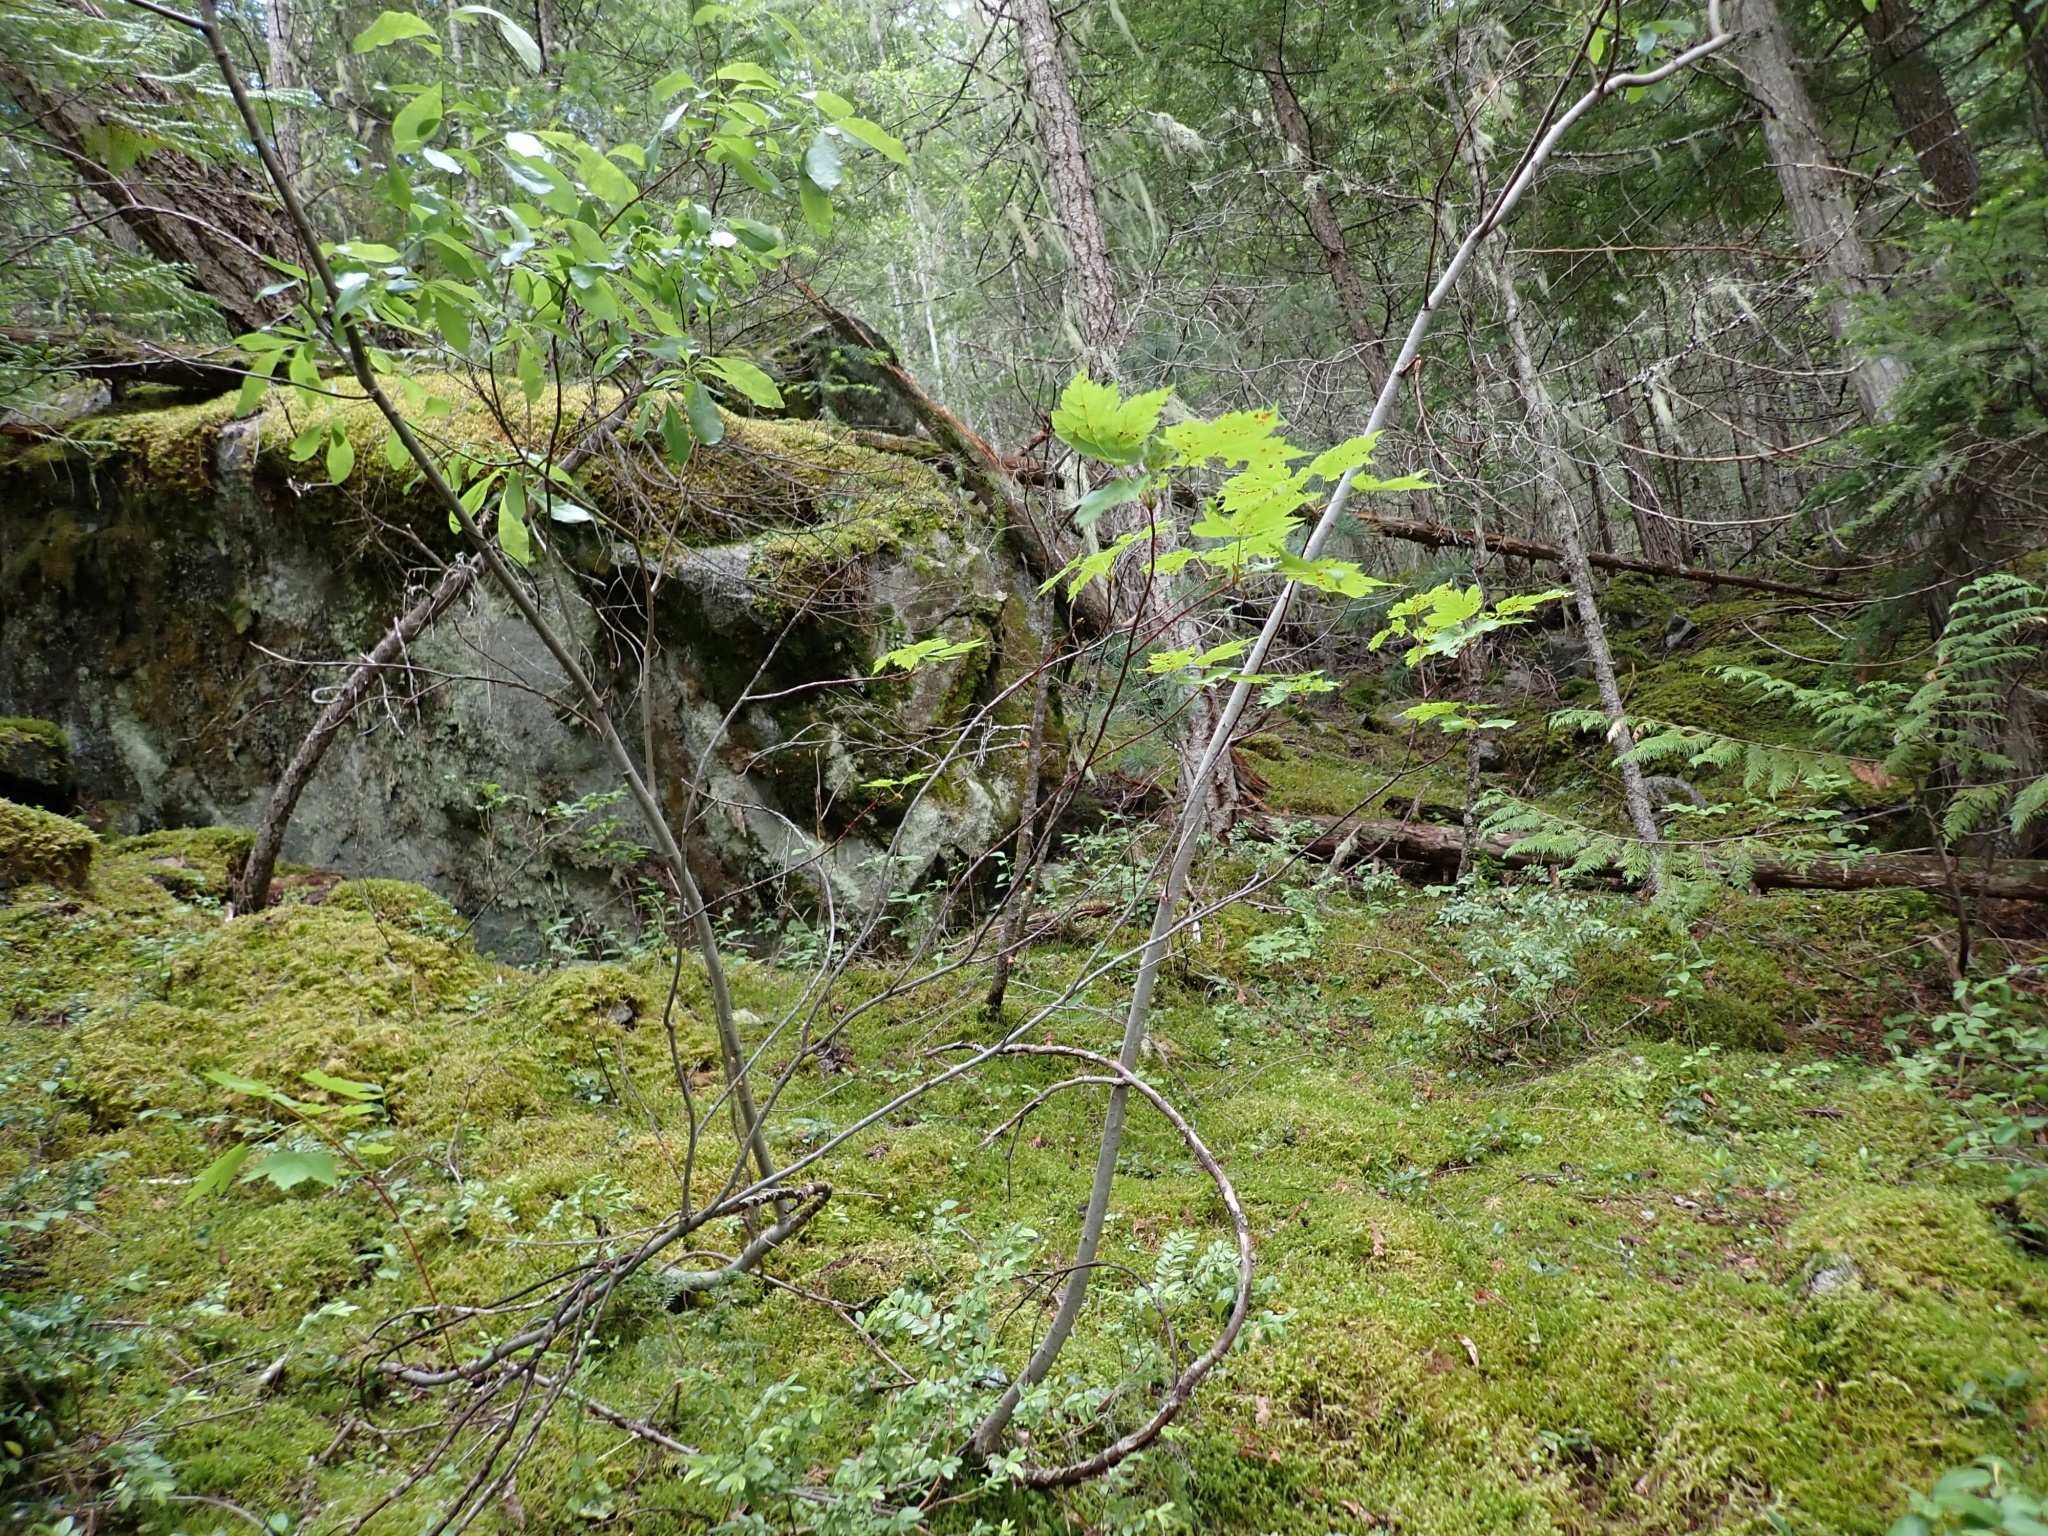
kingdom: Plantae
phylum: Tracheophyta
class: Magnoliopsida
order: Sapindales
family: Sapindaceae
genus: Acer
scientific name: Acer glabrum
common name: Rocky mountain maple
